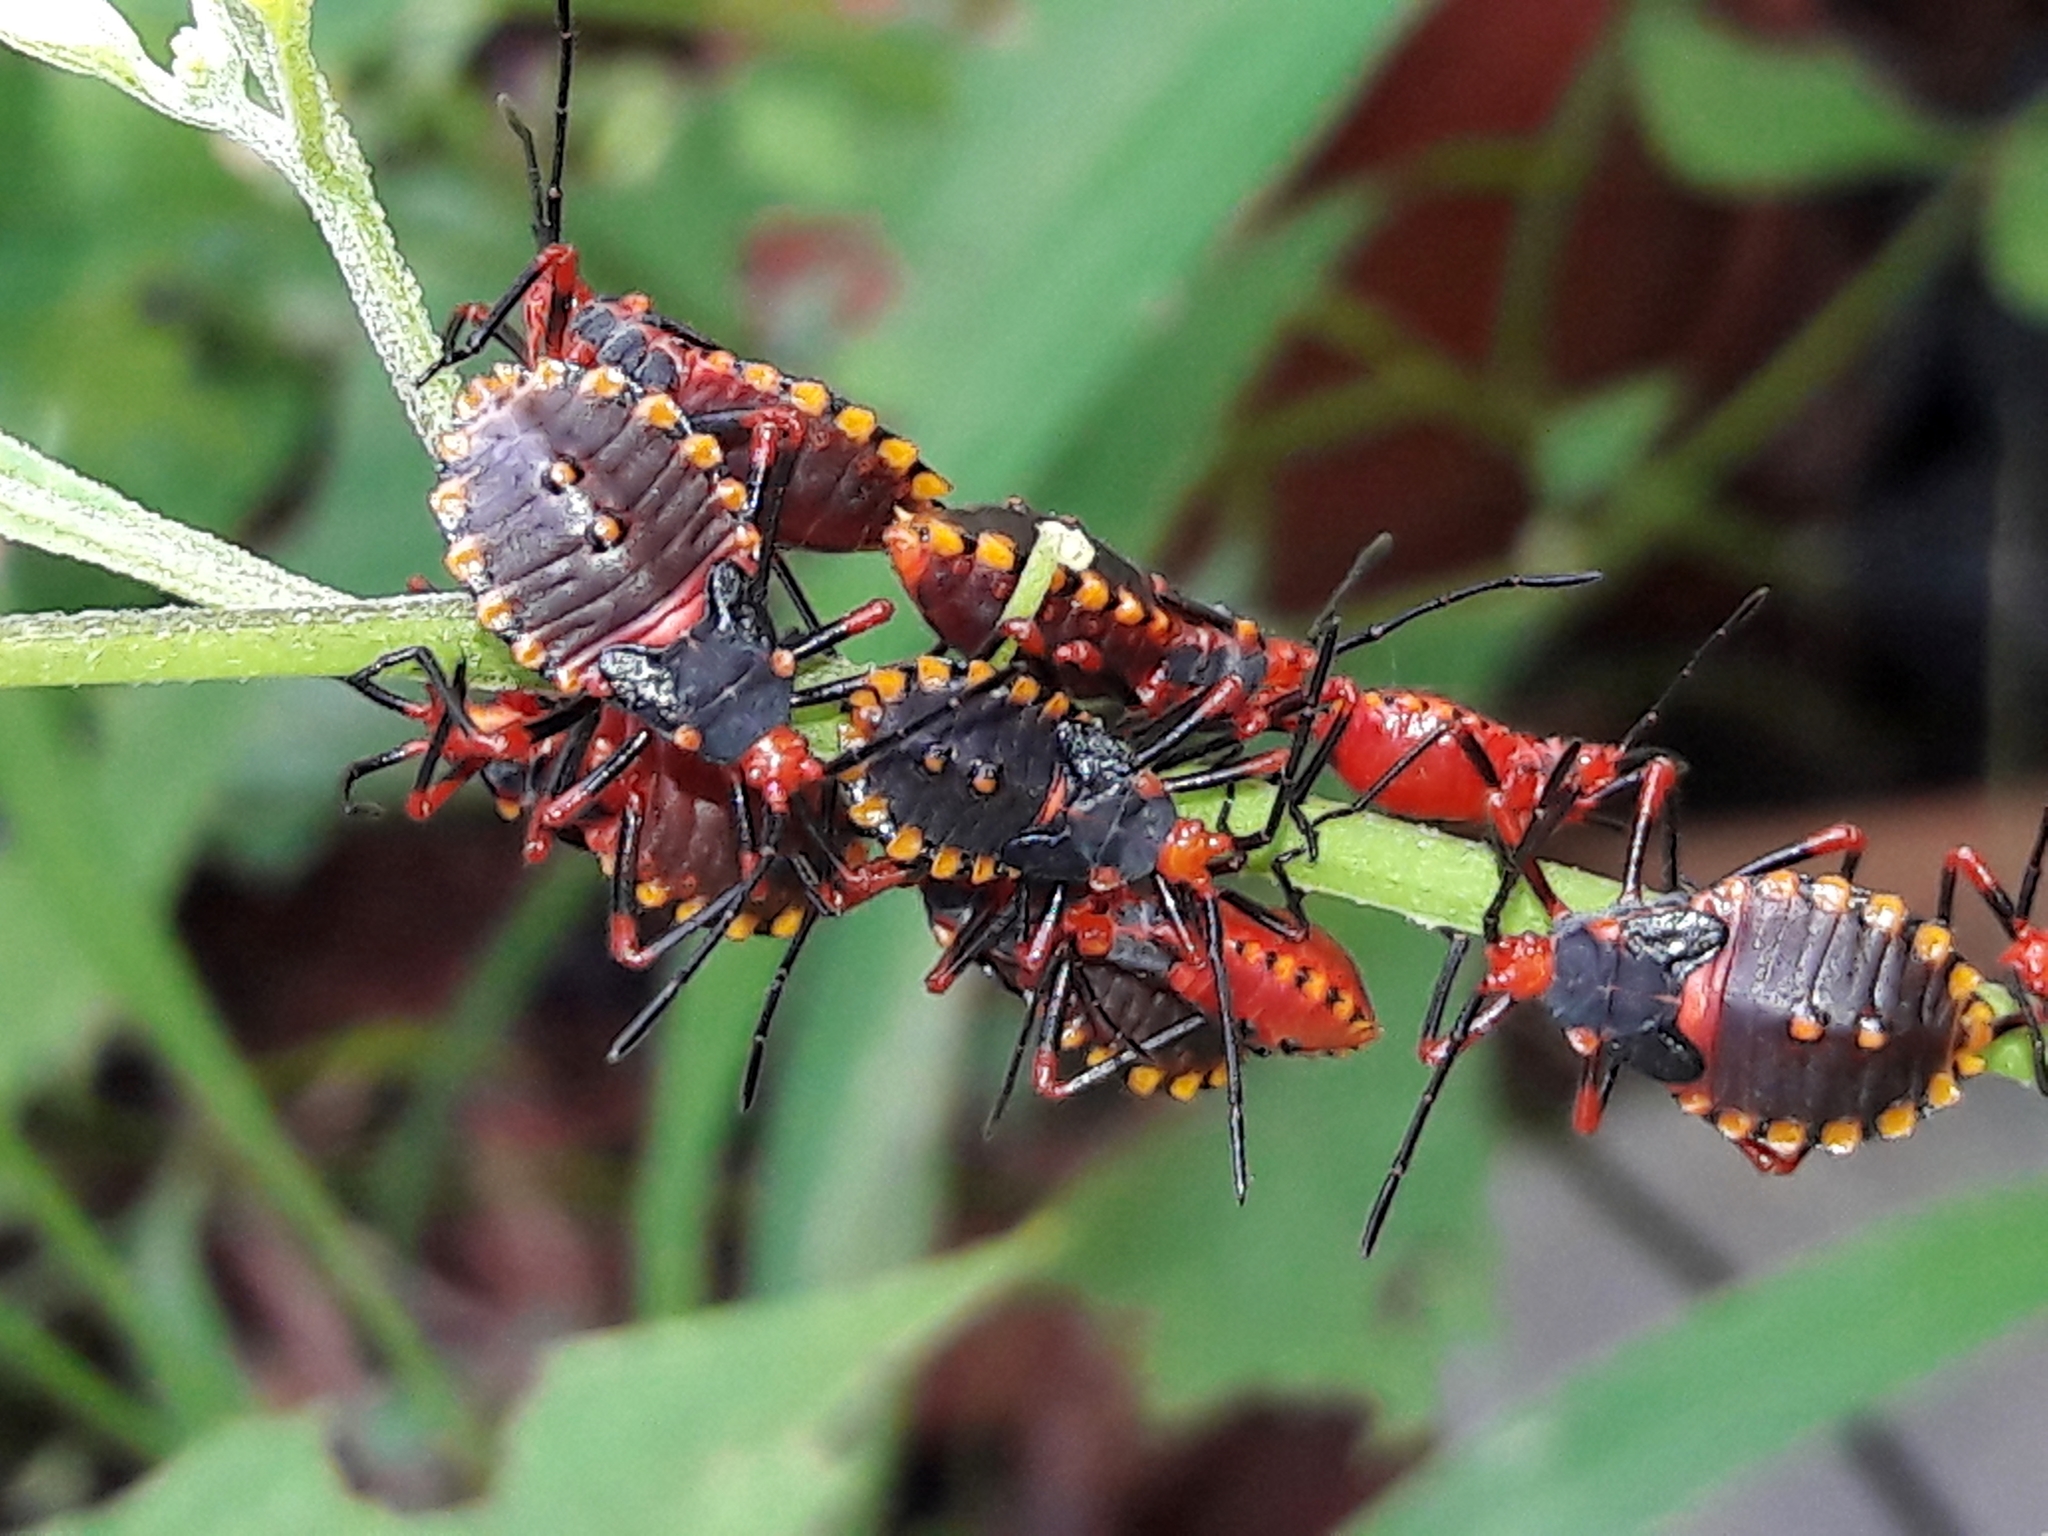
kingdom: Animalia
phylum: Arthropoda
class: Insecta
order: Hemiptera
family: Coreidae
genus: Spartocera
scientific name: Spartocera fusca
